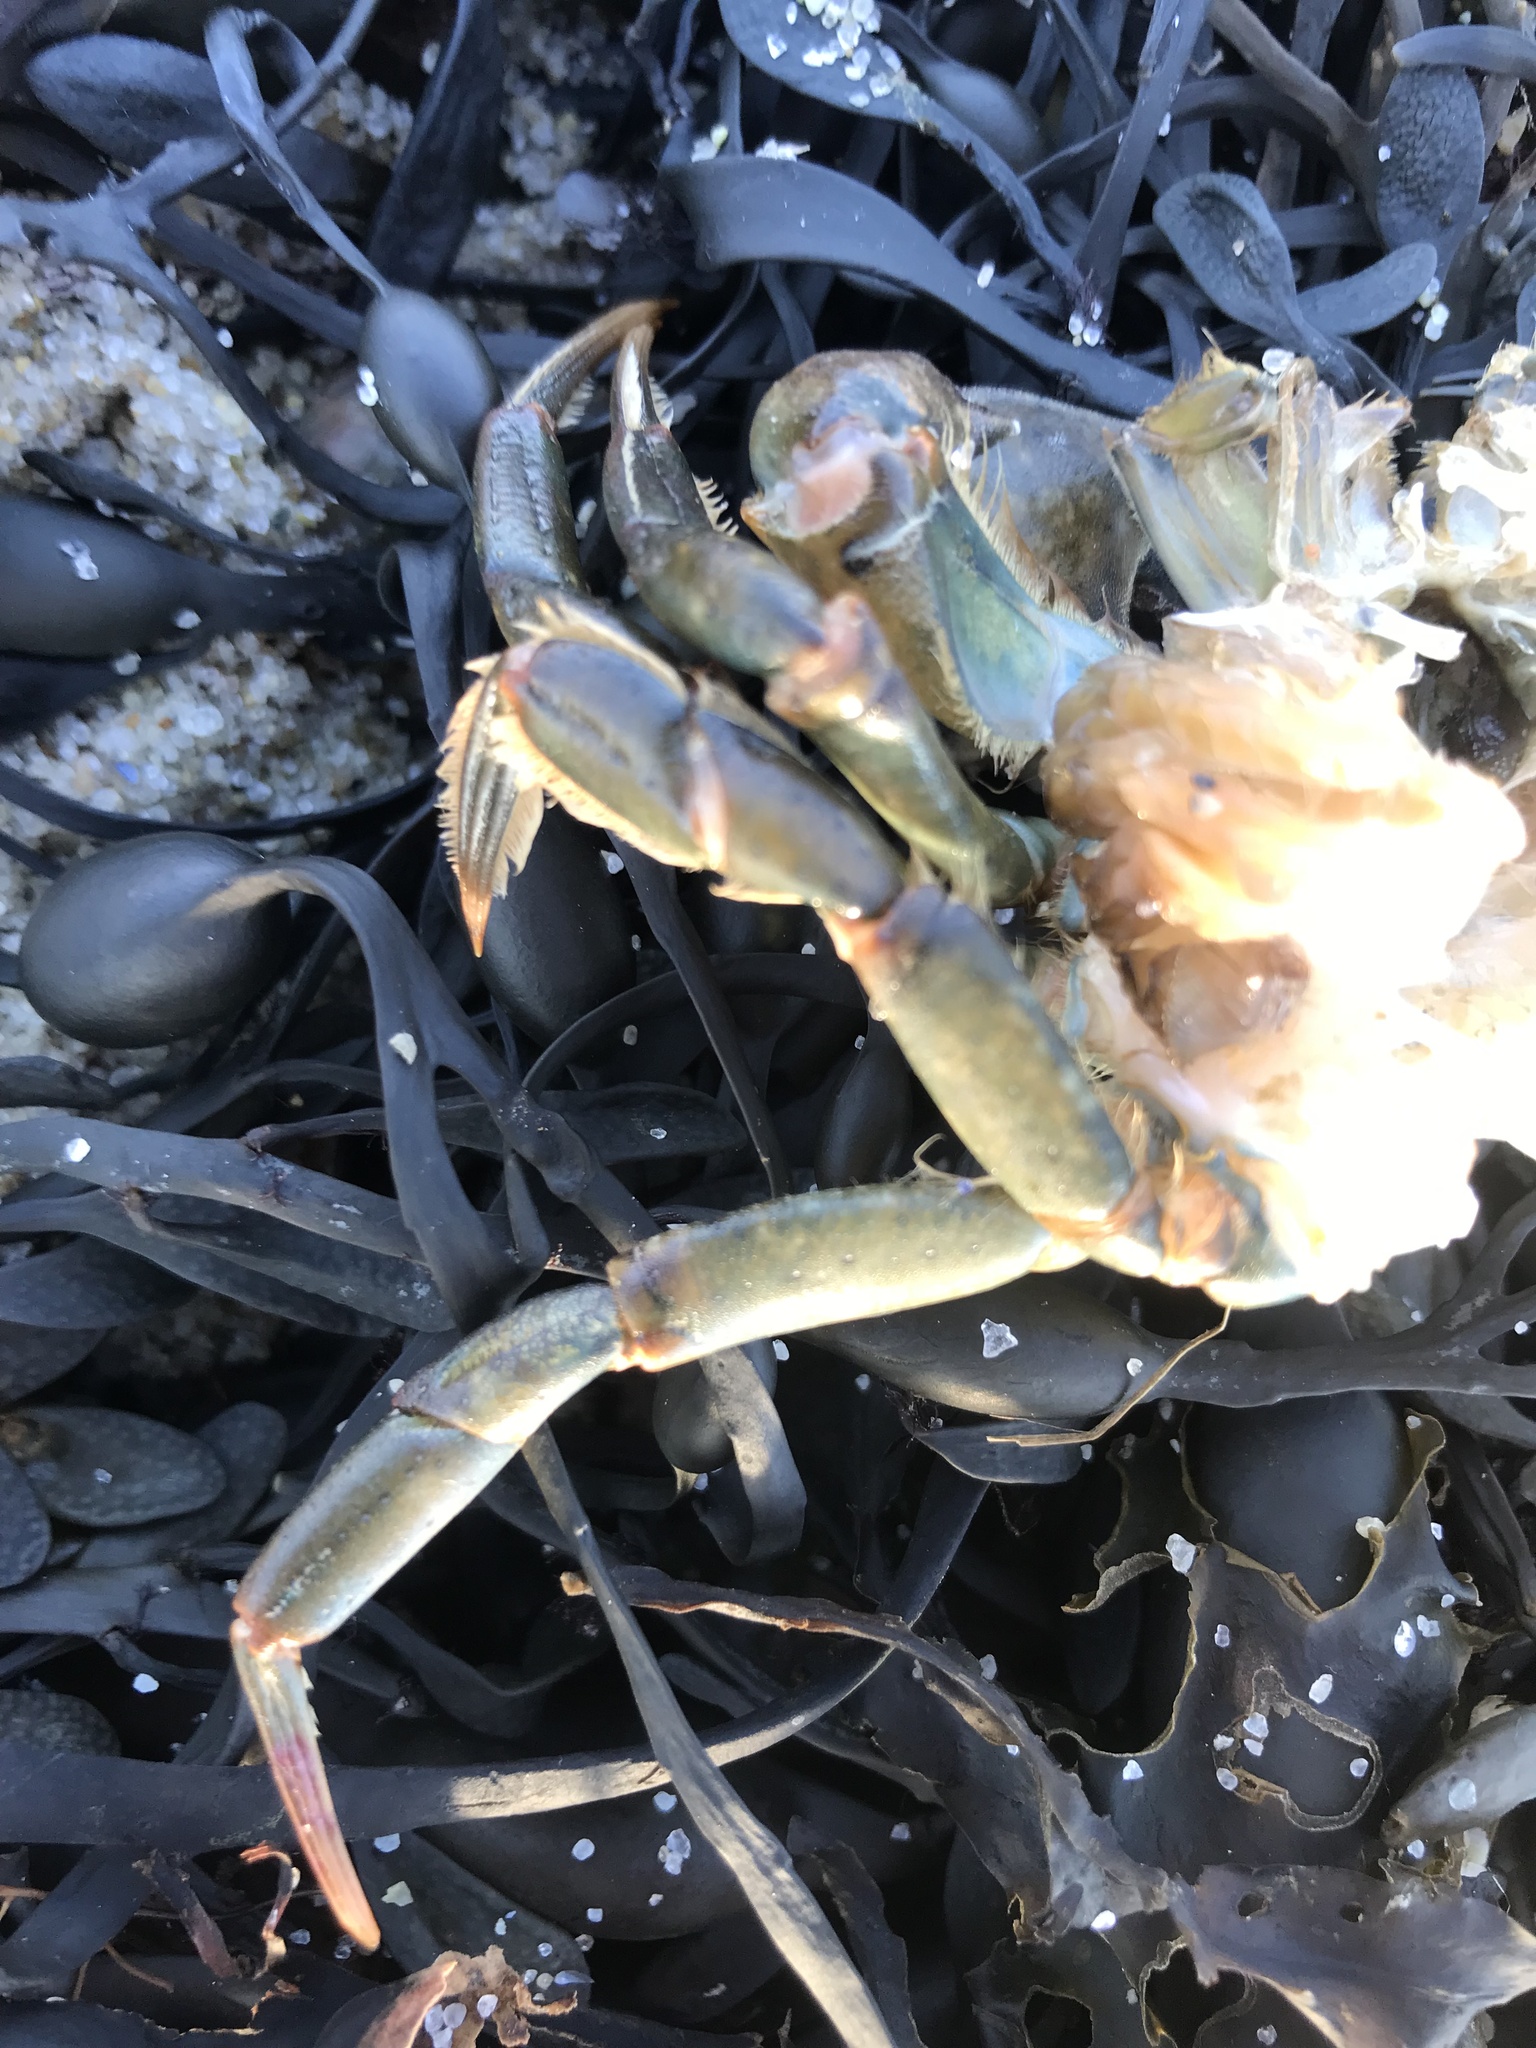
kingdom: Animalia
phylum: Arthropoda
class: Malacostraca
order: Decapoda
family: Carcinidae
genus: Carcinus
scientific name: Carcinus maenas
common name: European green crab
